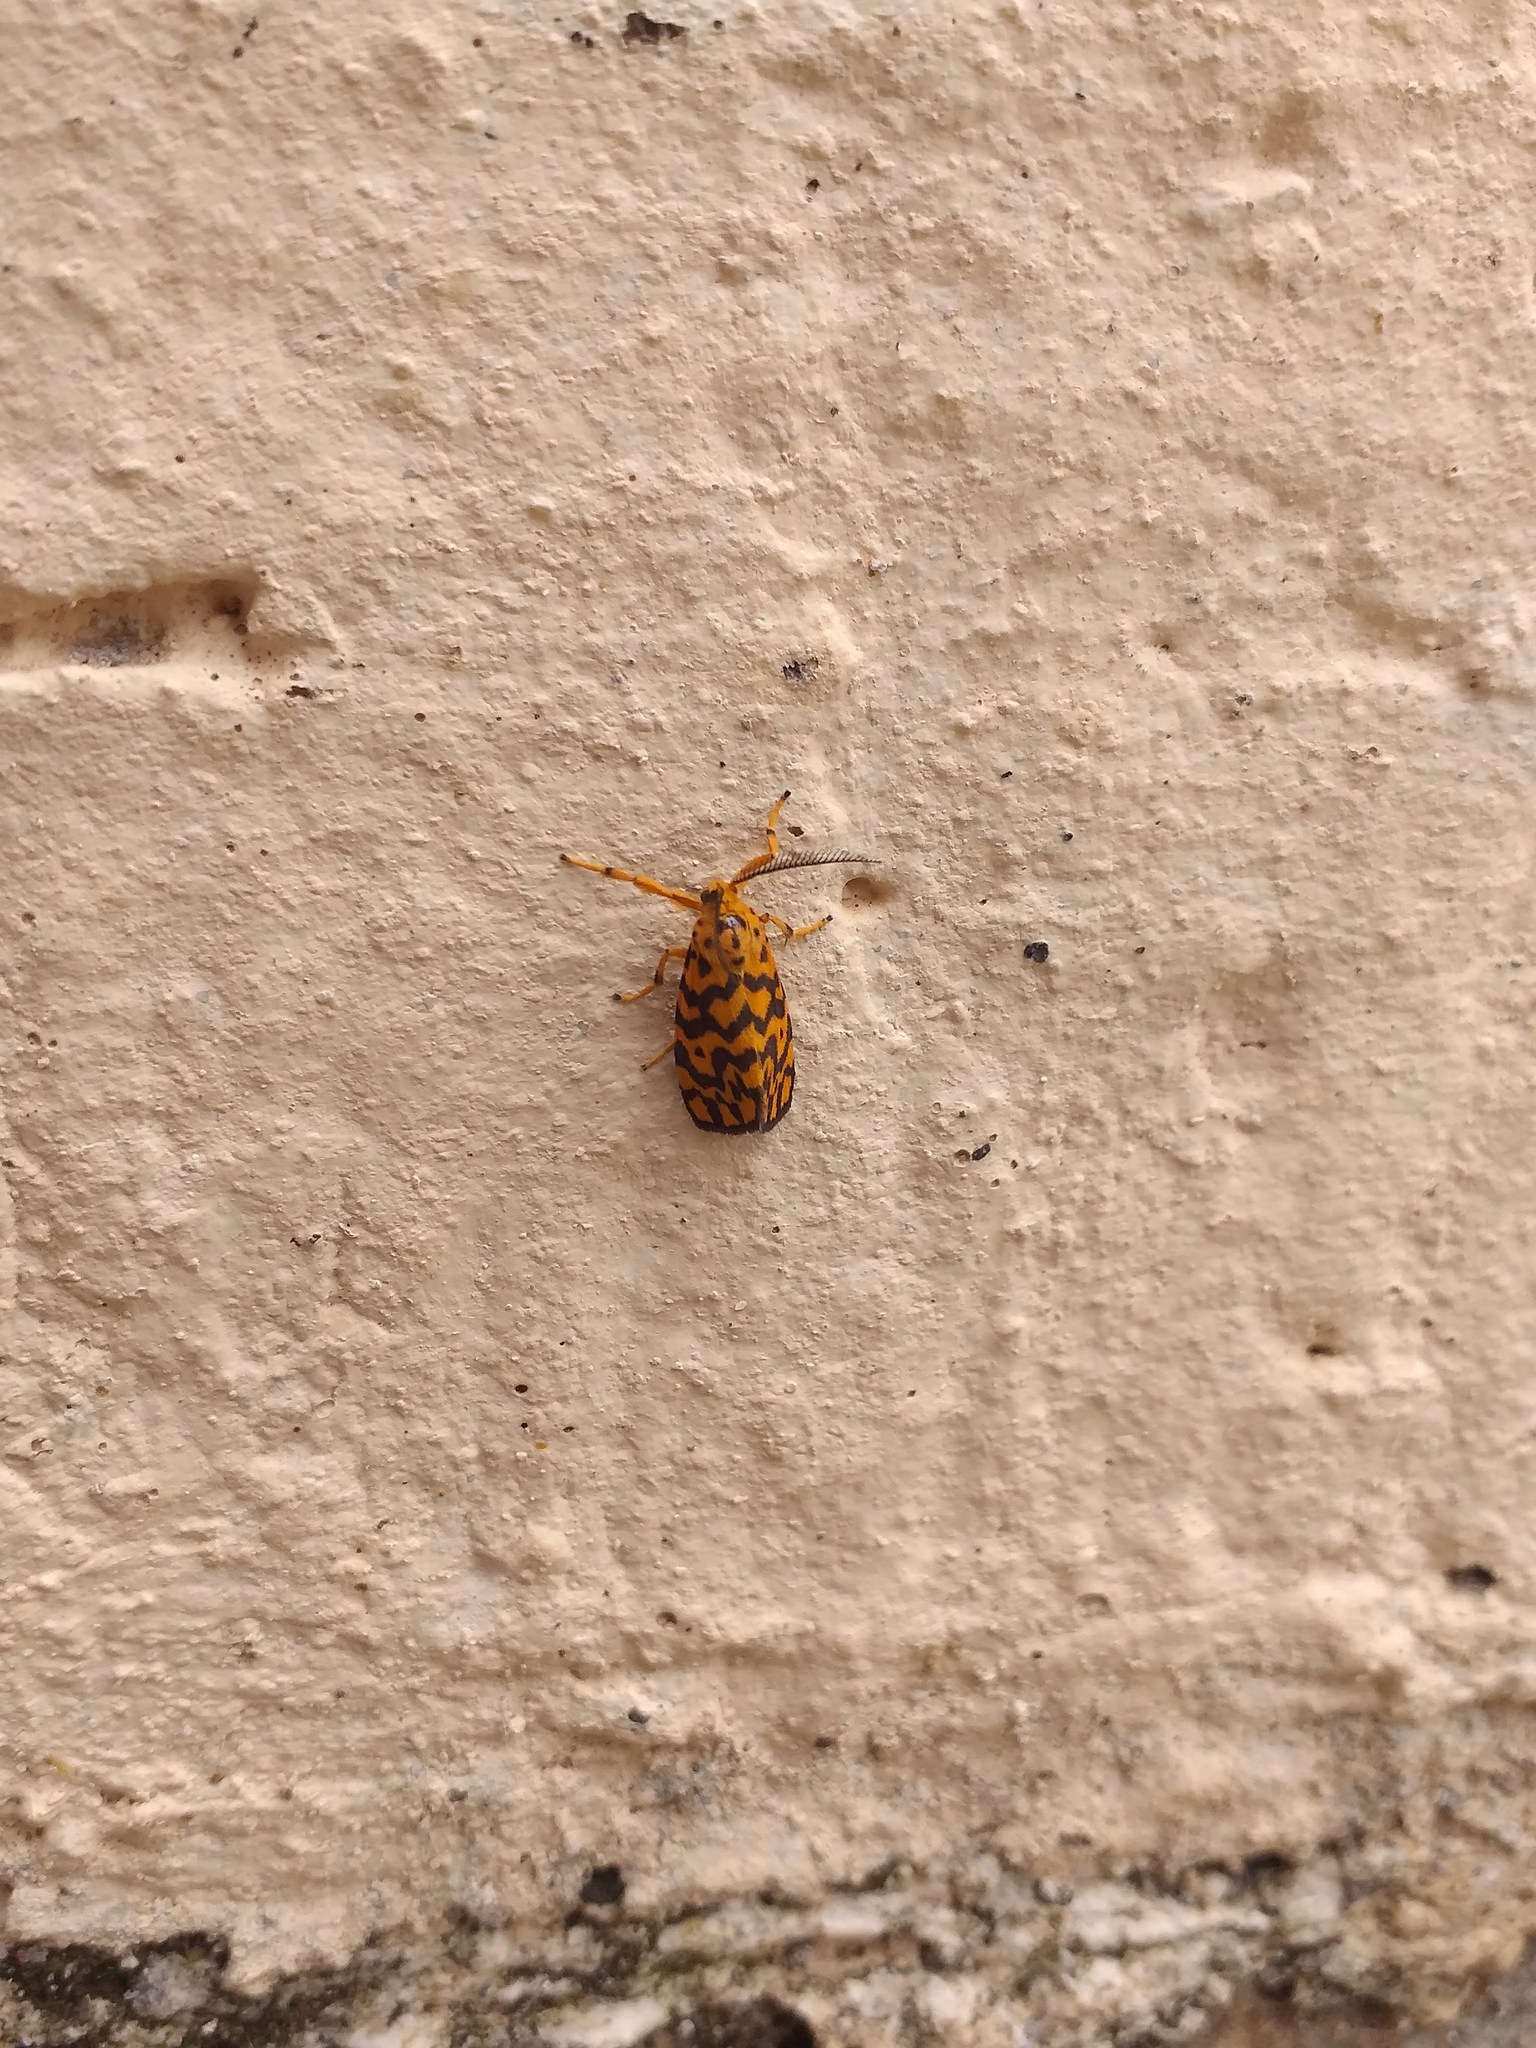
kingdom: Animalia
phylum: Arthropoda
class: Insecta
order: Lepidoptera
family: Erebidae
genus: Nepita
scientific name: Nepita conferta
